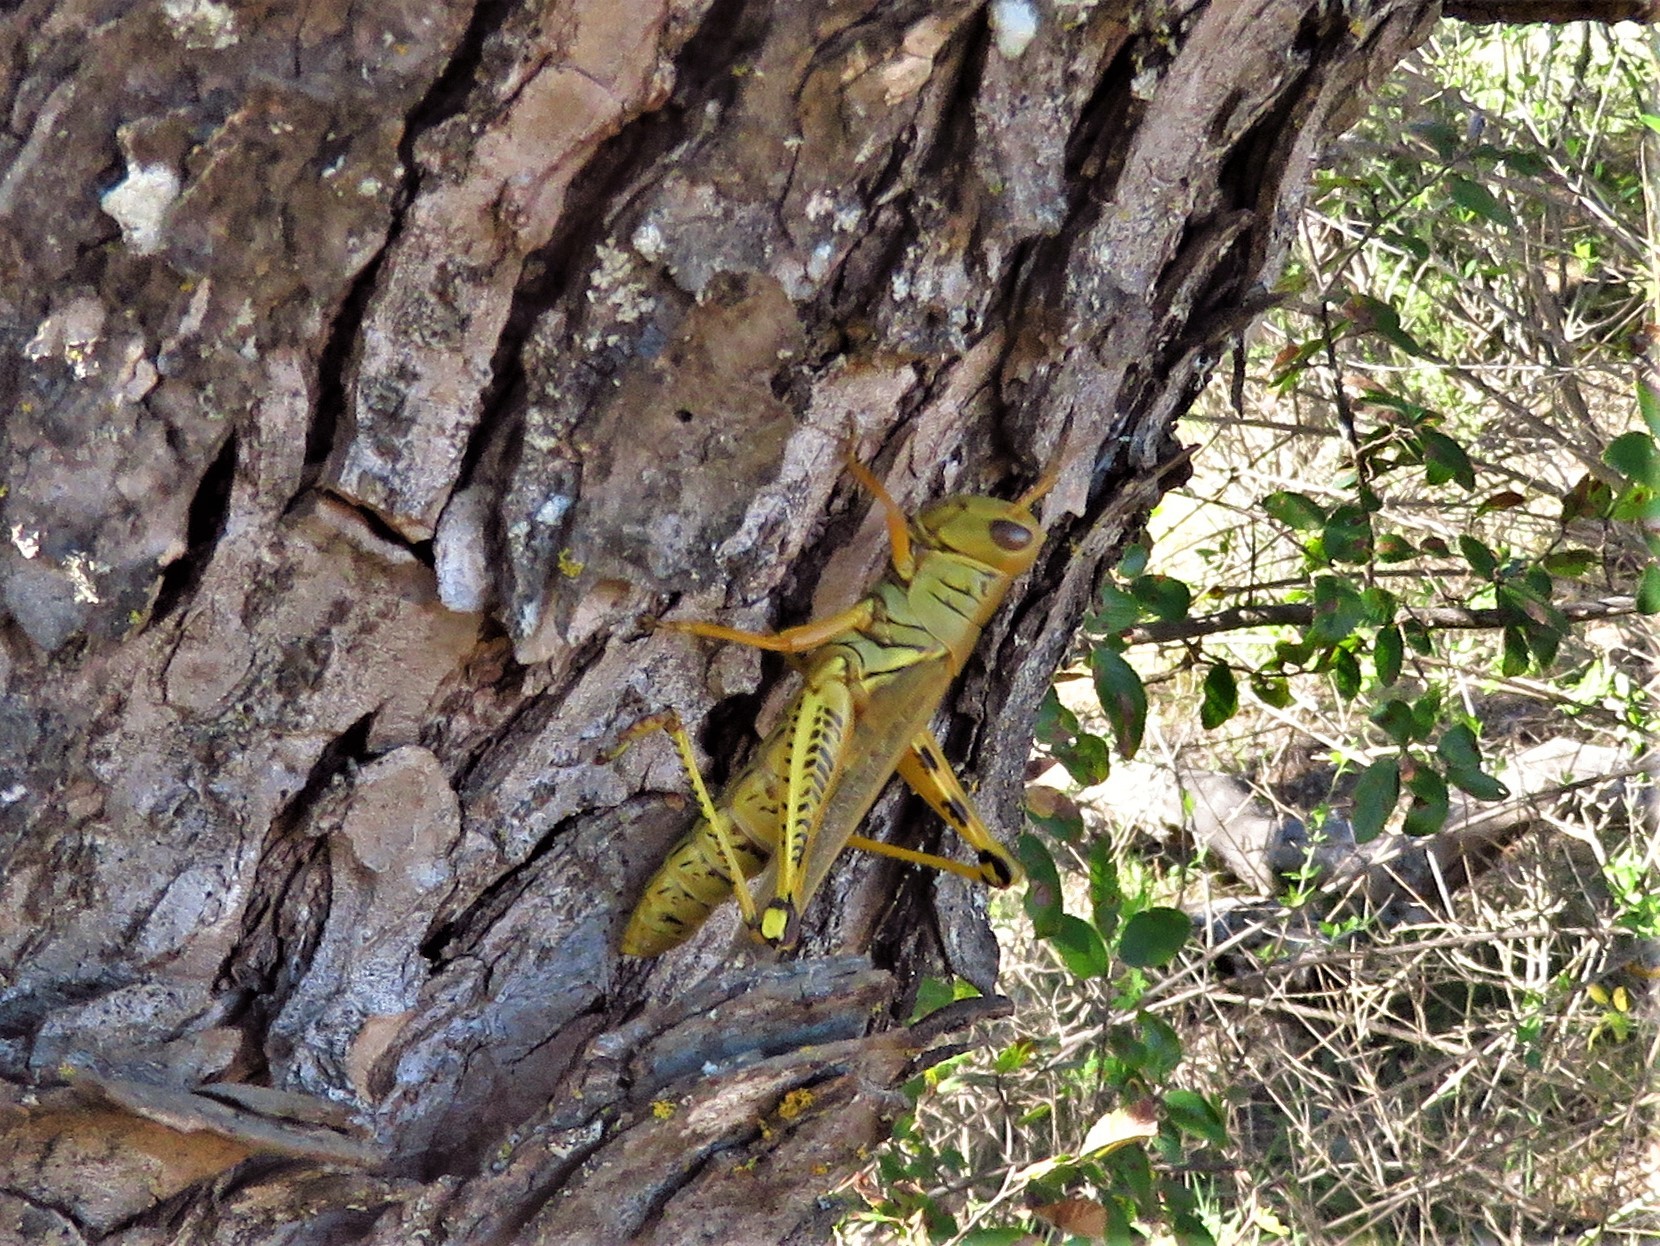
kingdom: Animalia
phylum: Arthropoda
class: Insecta
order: Orthoptera
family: Acrididae
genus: Melanoplus
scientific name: Melanoplus differentialis
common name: Differential grasshopper
